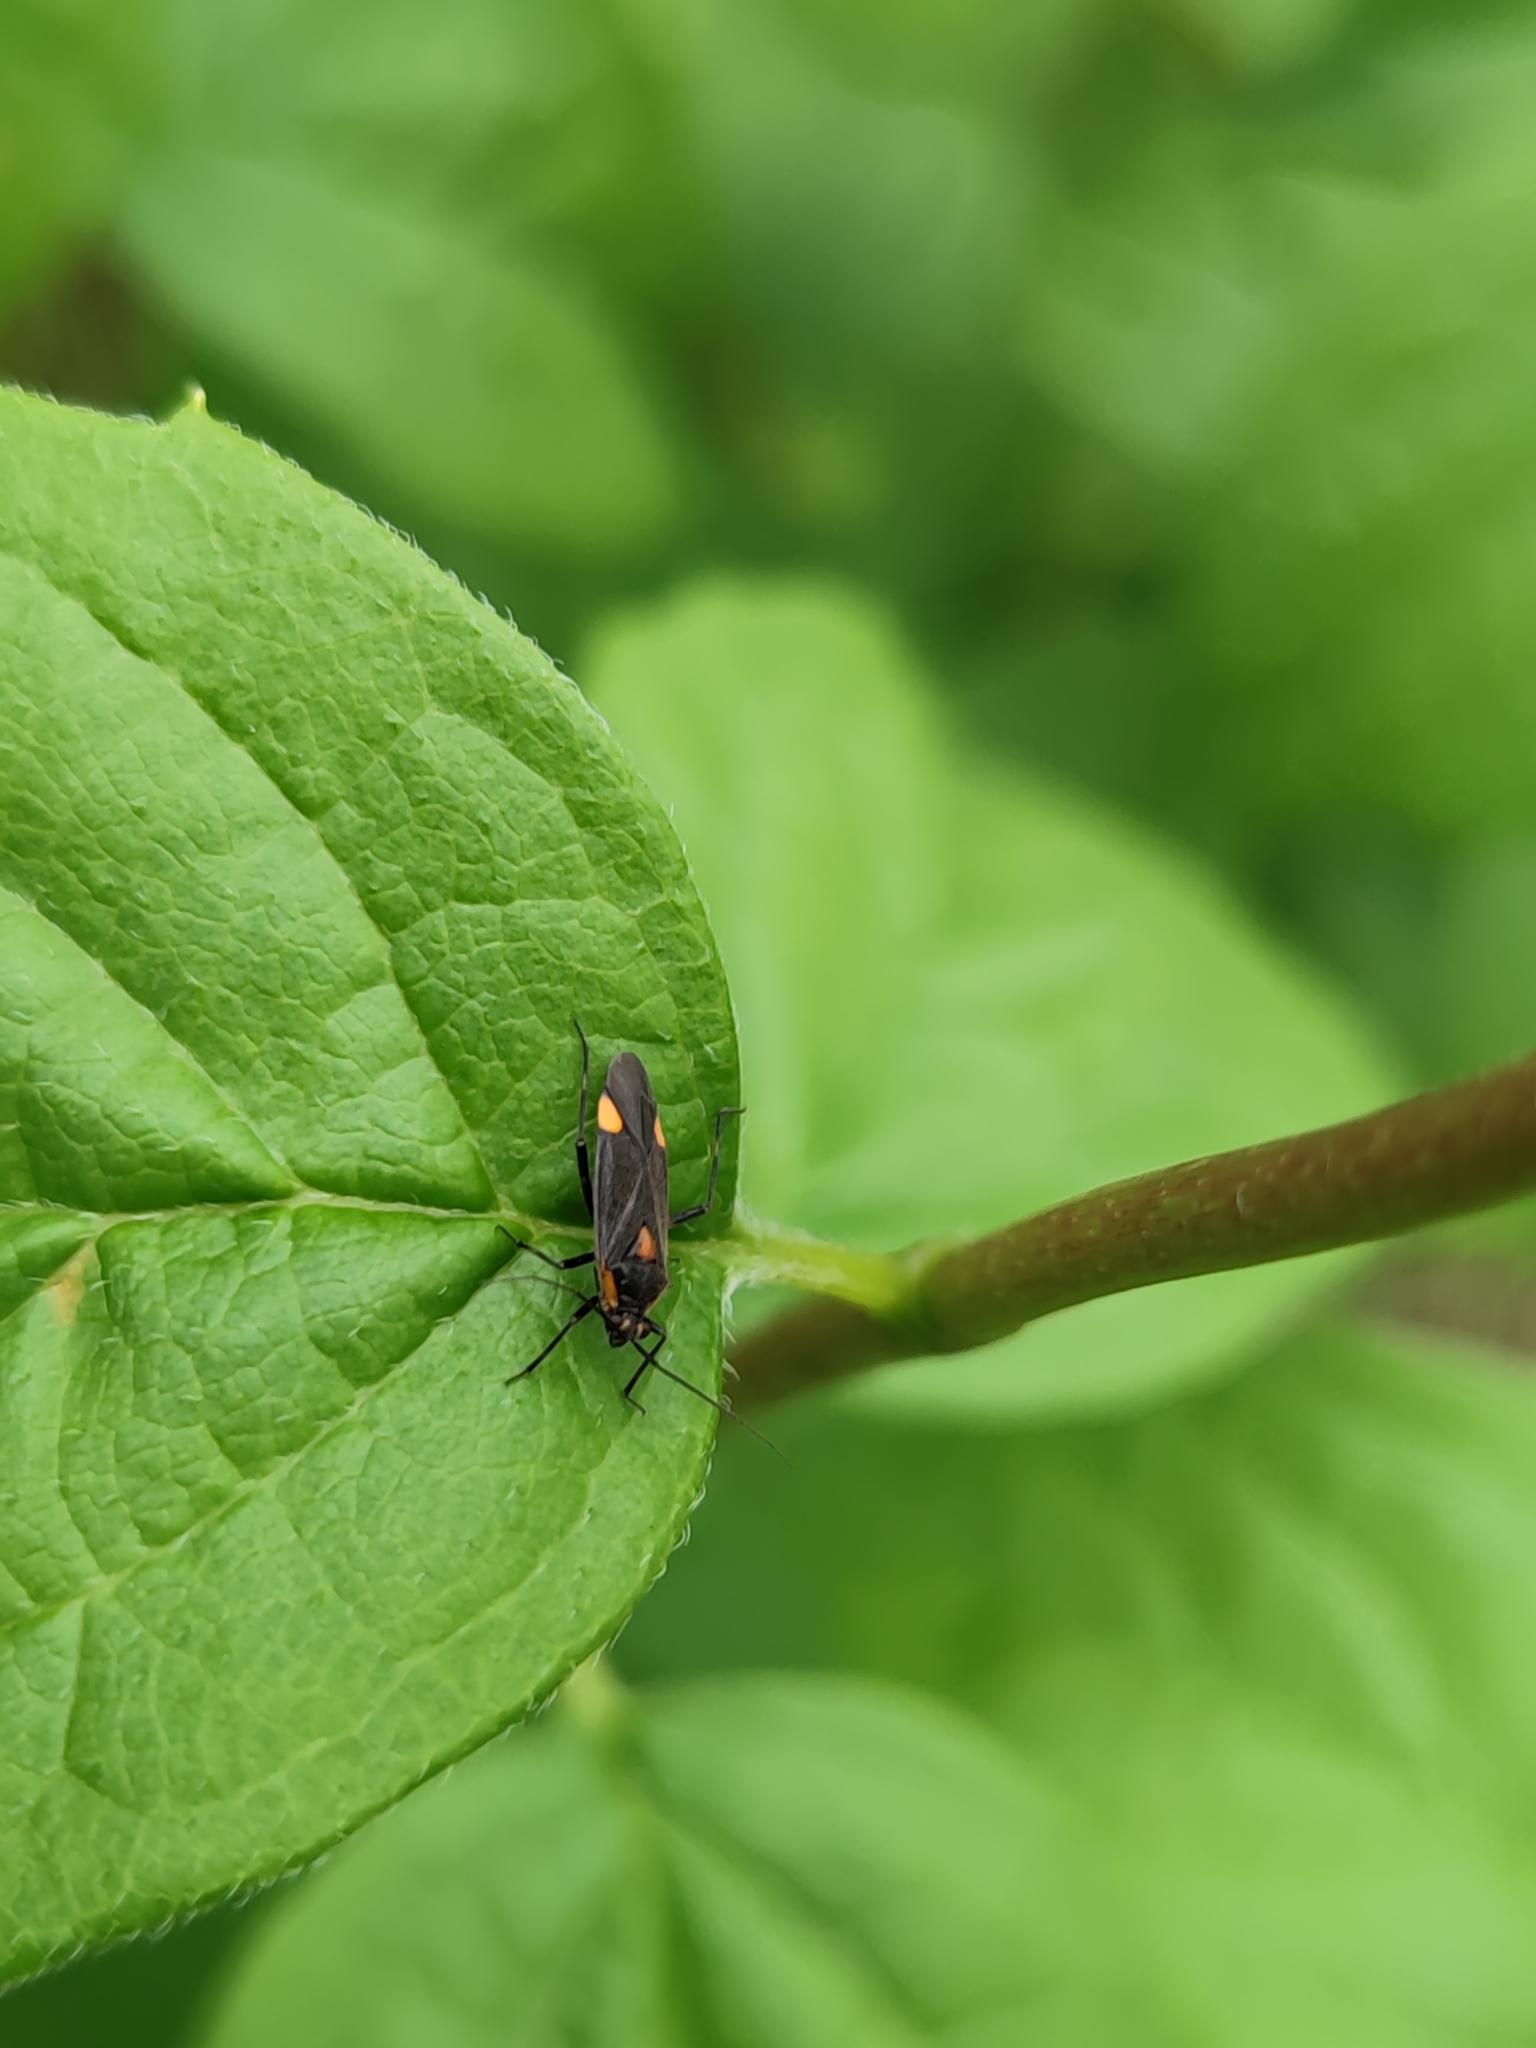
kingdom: Animalia
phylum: Arthropoda
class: Insecta
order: Hemiptera
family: Miridae
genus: Capsodes
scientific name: Capsodes flavomarginatus
